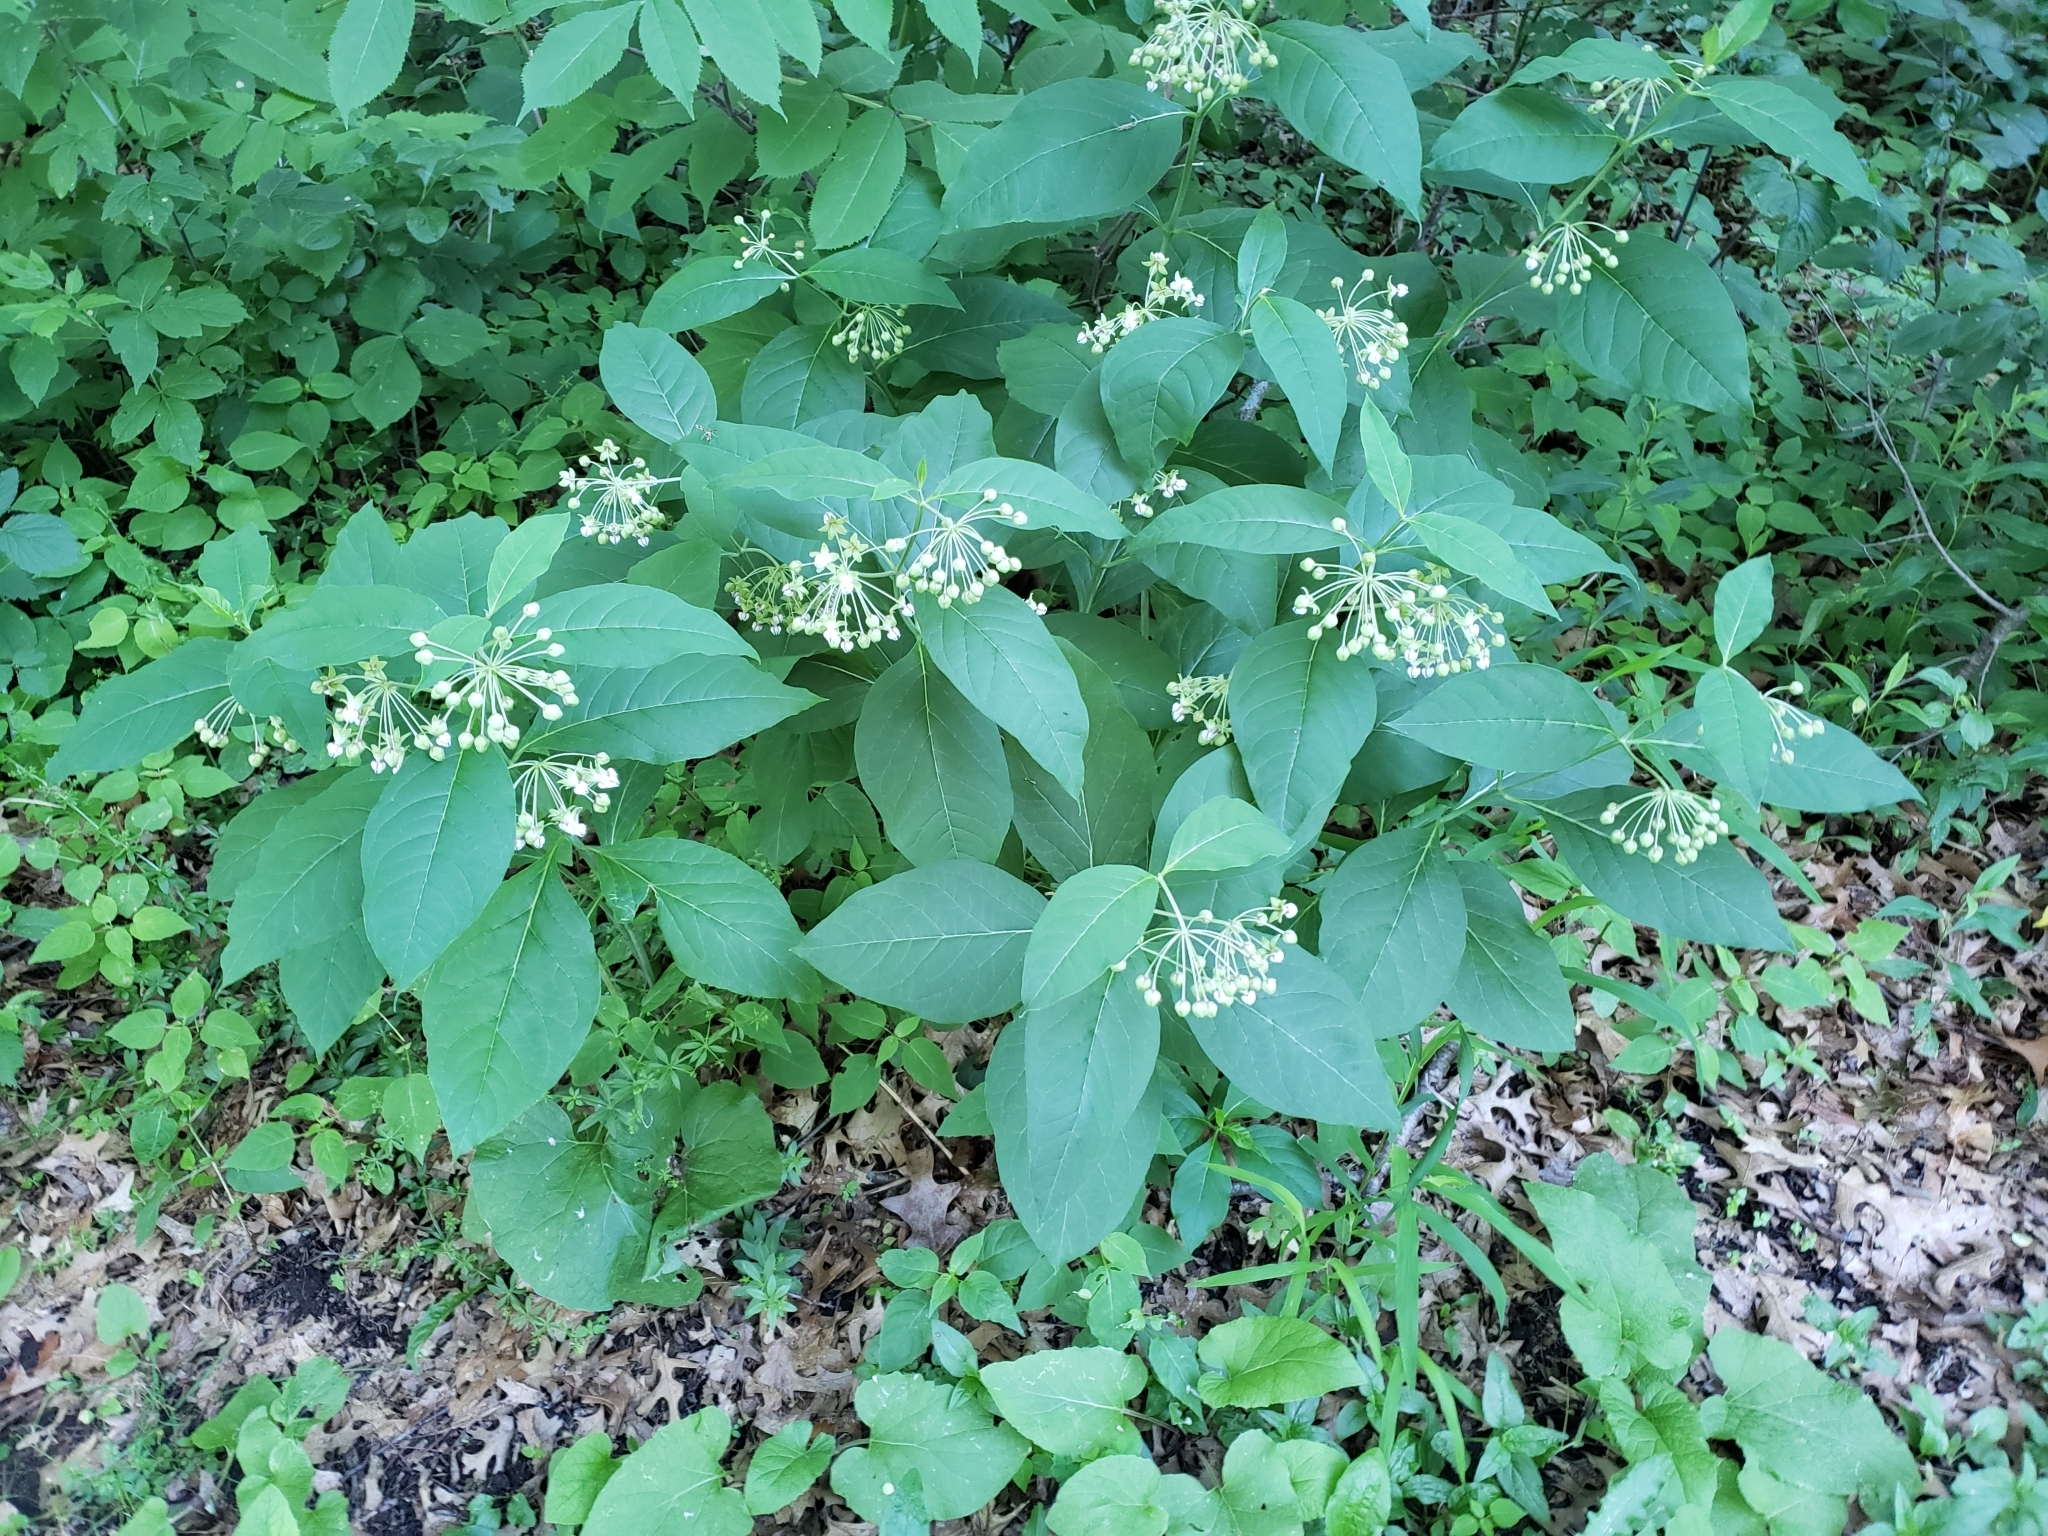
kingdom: Plantae
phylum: Tracheophyta
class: Magnoliopsida
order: Gentianales
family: Apocynaceae
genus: Asclepias
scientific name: Asclepias exaltata
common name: Poke milkweed
